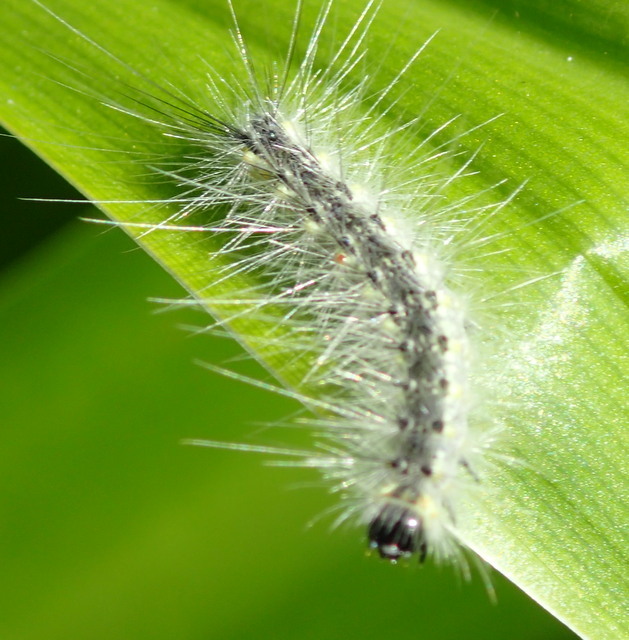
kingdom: Animalia
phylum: Arthropoda
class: Insecta
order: Lepidoptera
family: Erebidae
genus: Hyphantria
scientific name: Hyphantria cunea
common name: American white moth
